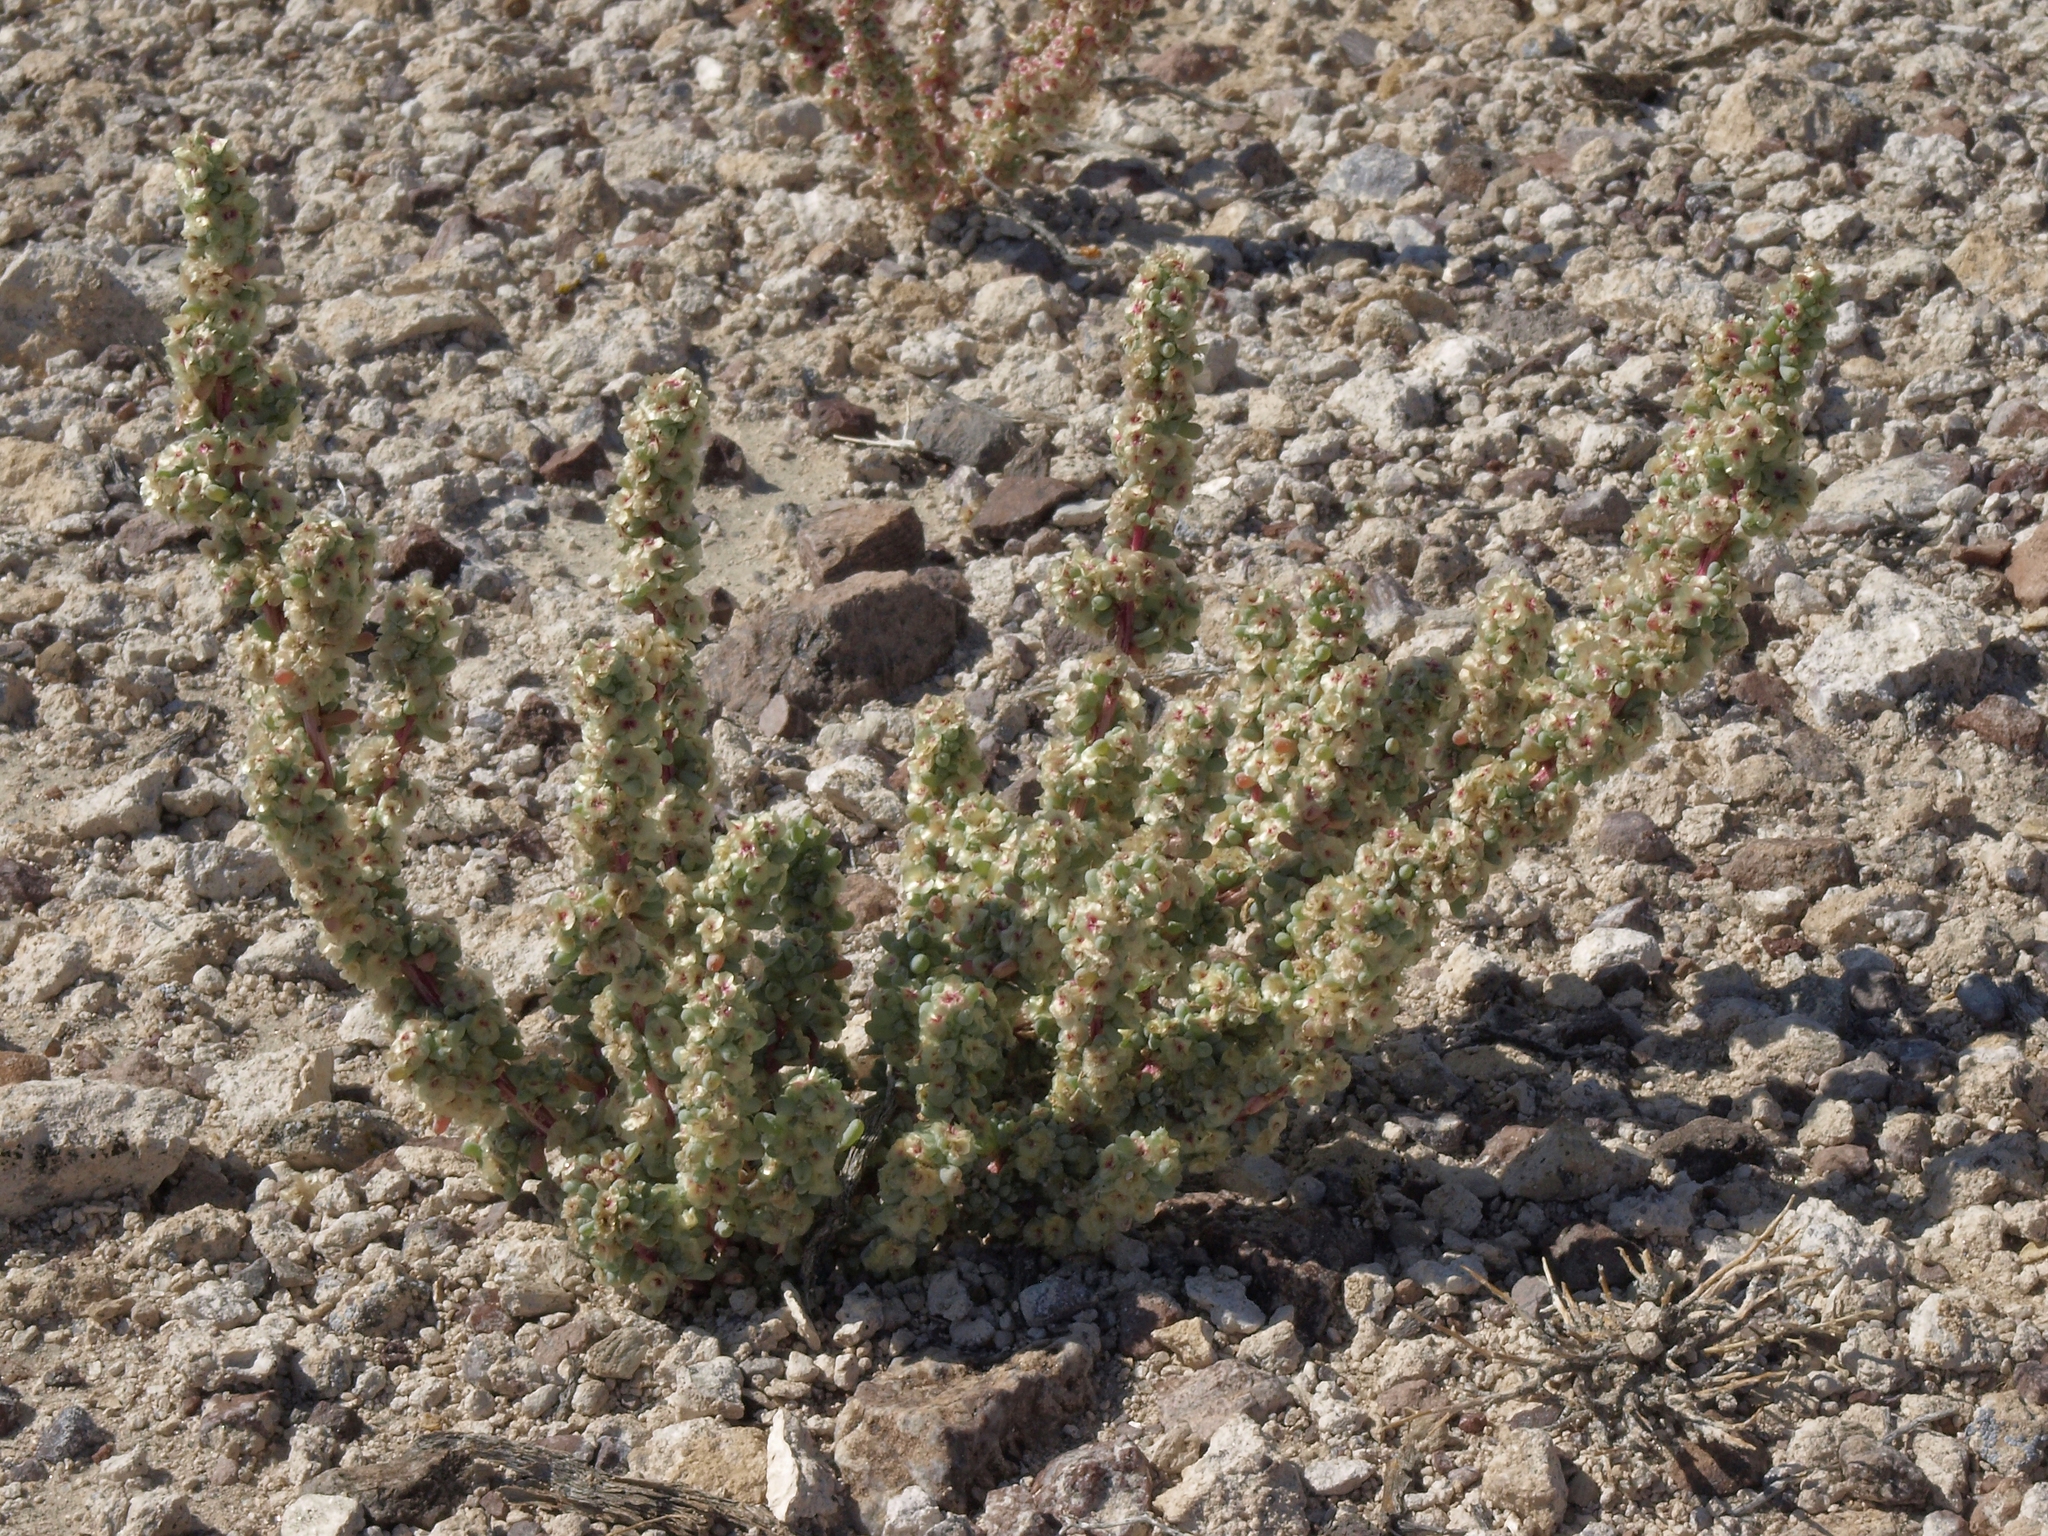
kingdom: Plantae
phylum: Tracheophyta
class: Magnoliopsida
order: Caryophyllales
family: Amaranthaceae
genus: Halogeton
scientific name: Halogeton glomeratus
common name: Saltlover
